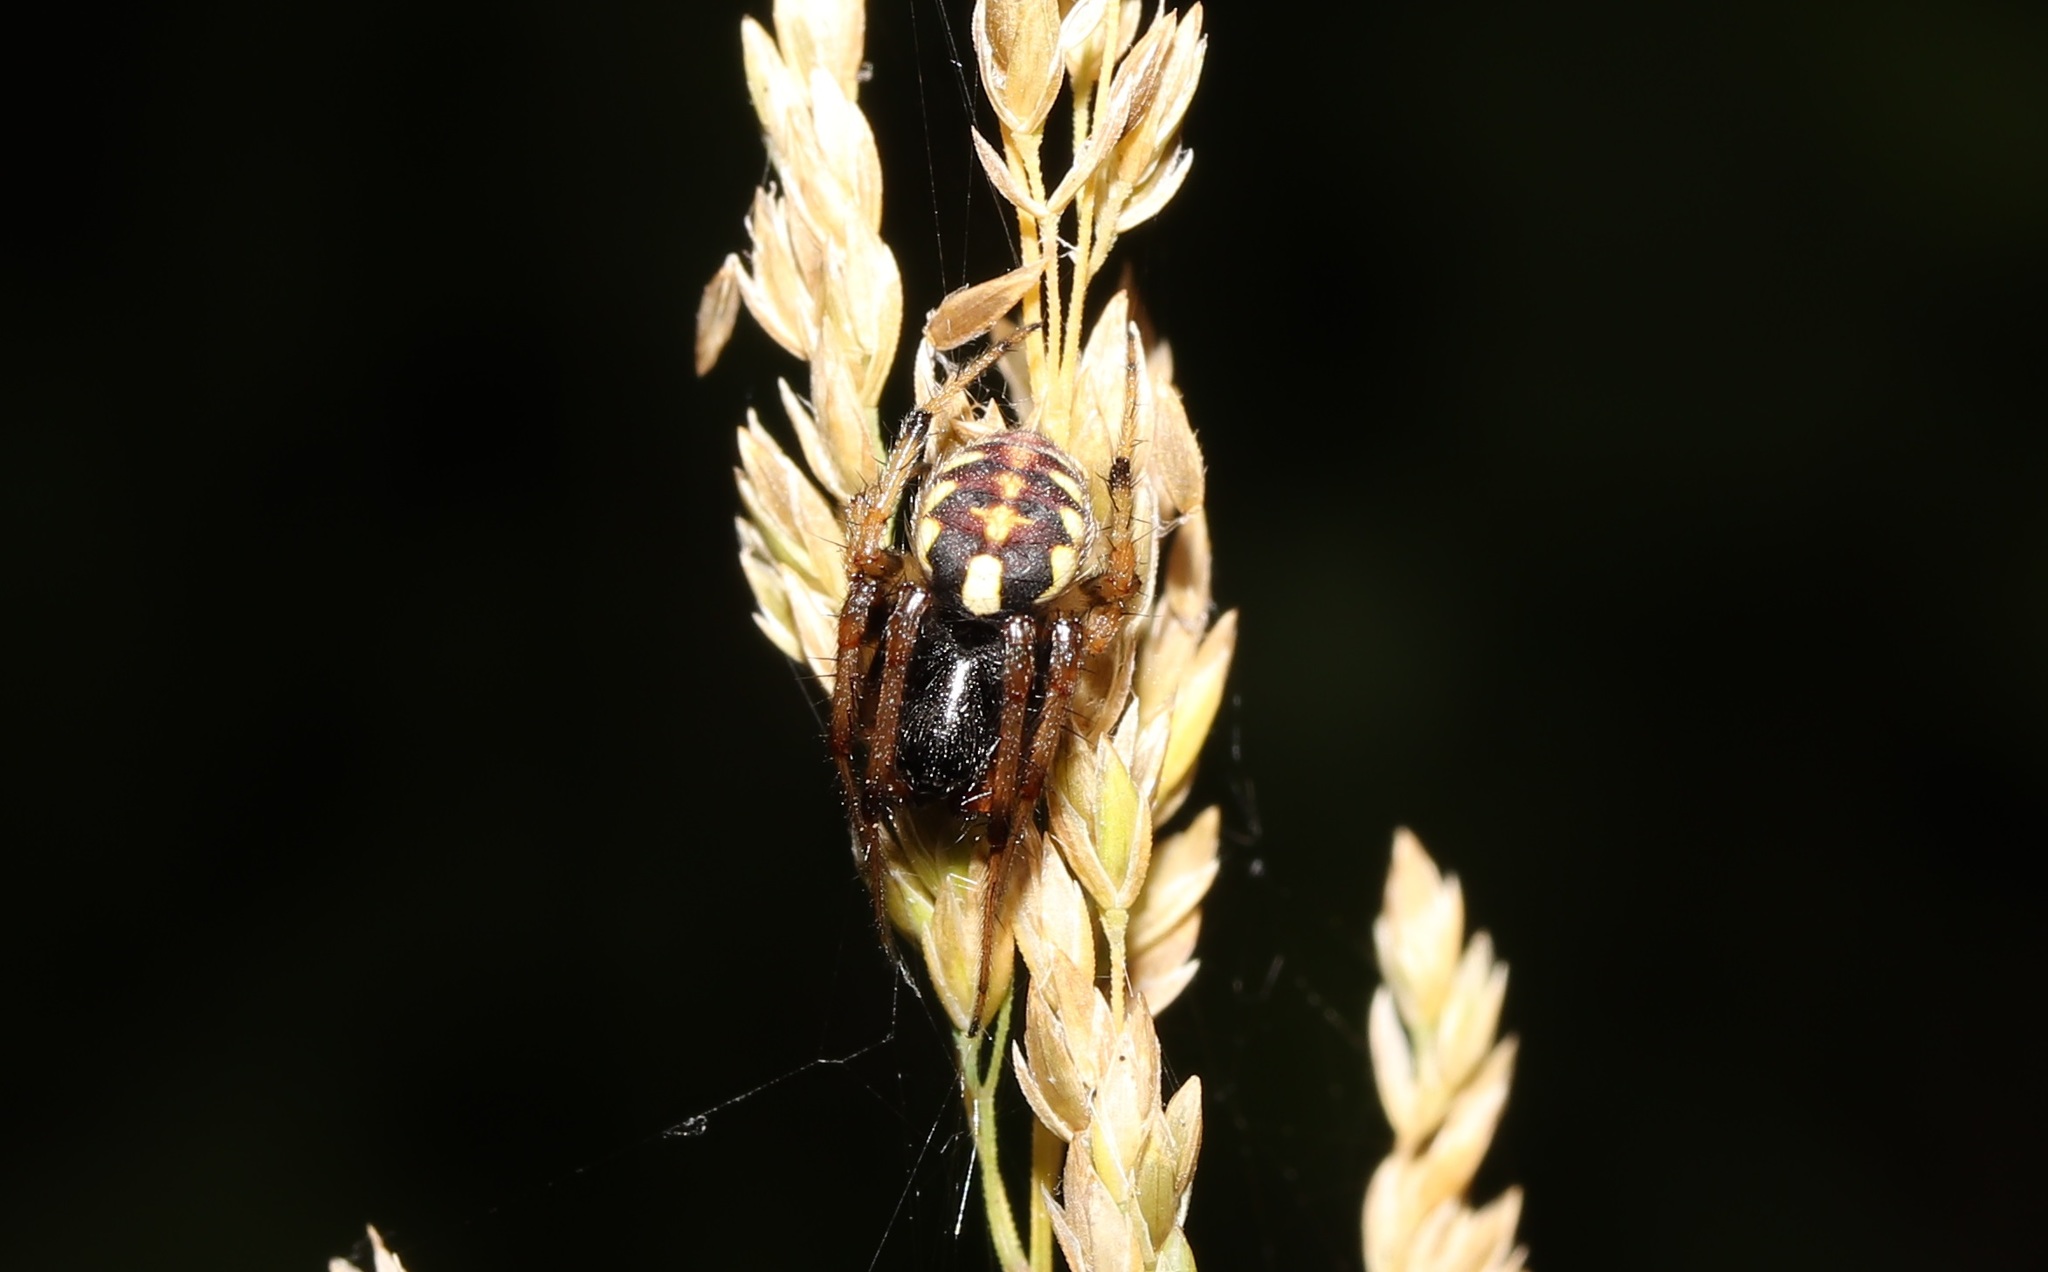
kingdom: Animalia
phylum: Arthropoda
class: Arachnida
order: Araneae
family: Araneidae
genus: Araneus
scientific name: Araneus ejusmodi
